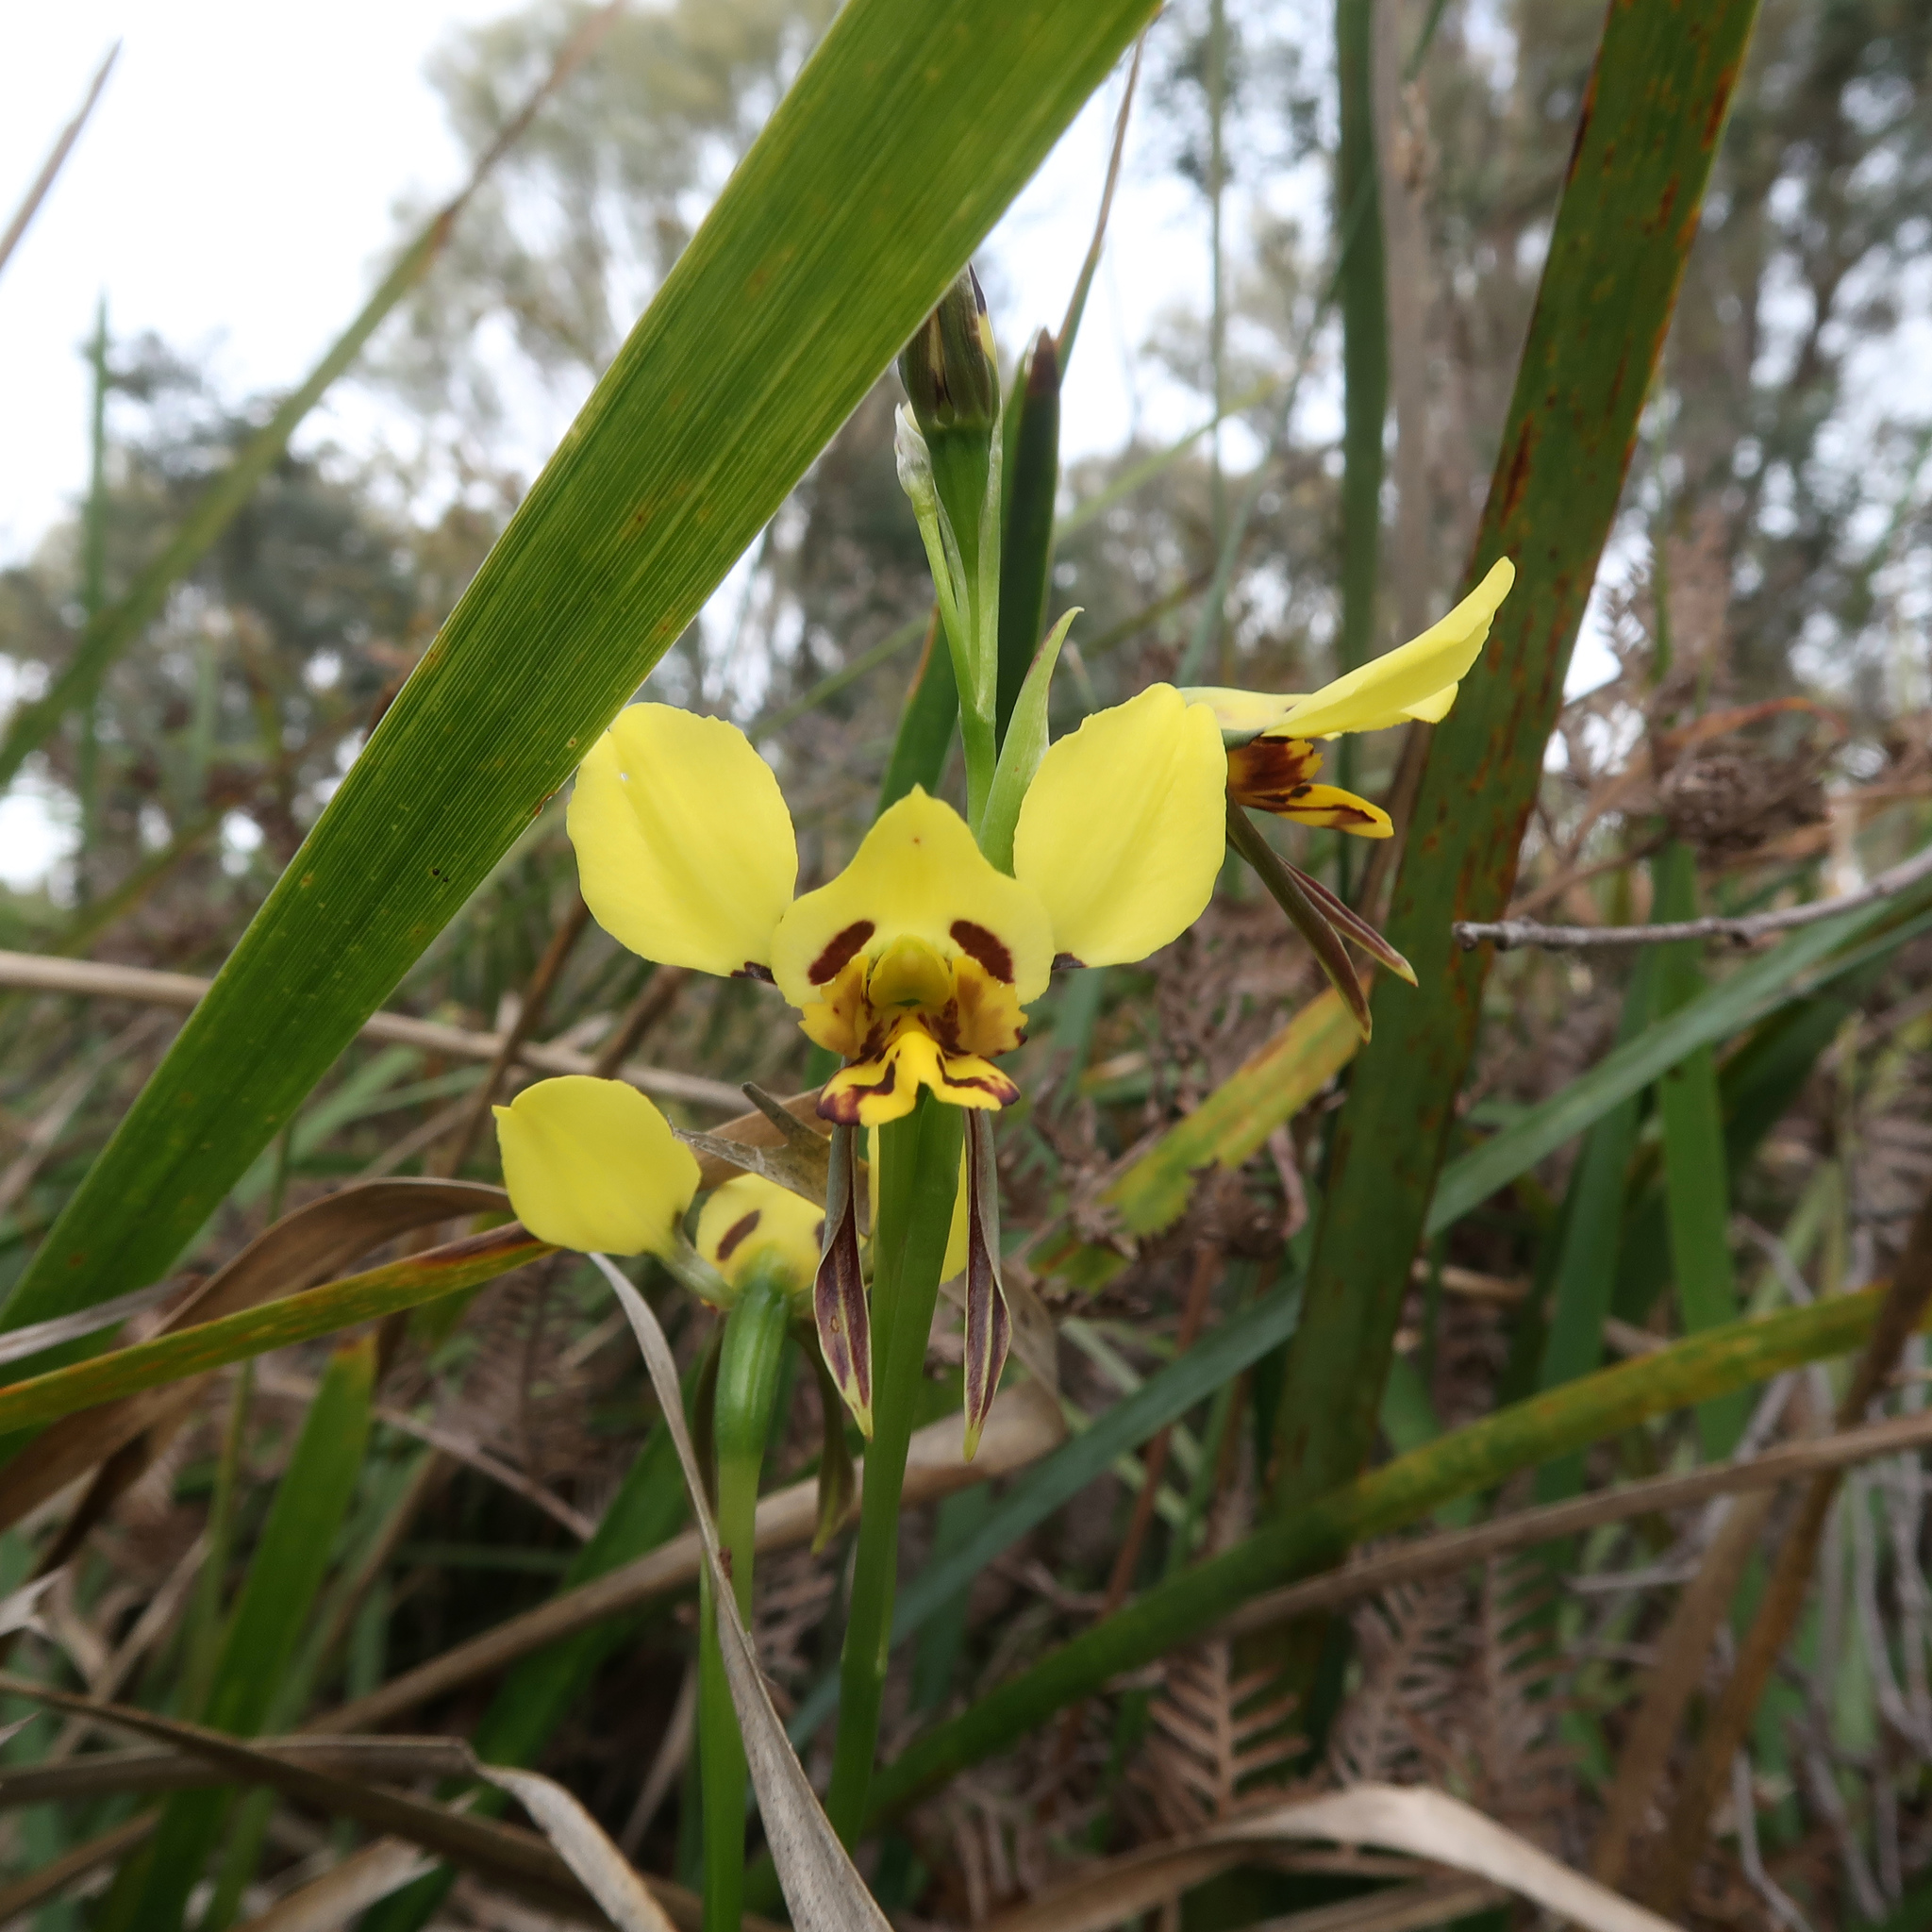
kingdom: Plantae
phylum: Tracheophyta
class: Liliopsida
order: Asparagales
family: Orchidaceae
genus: Diuris
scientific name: Diuris sulphurea
